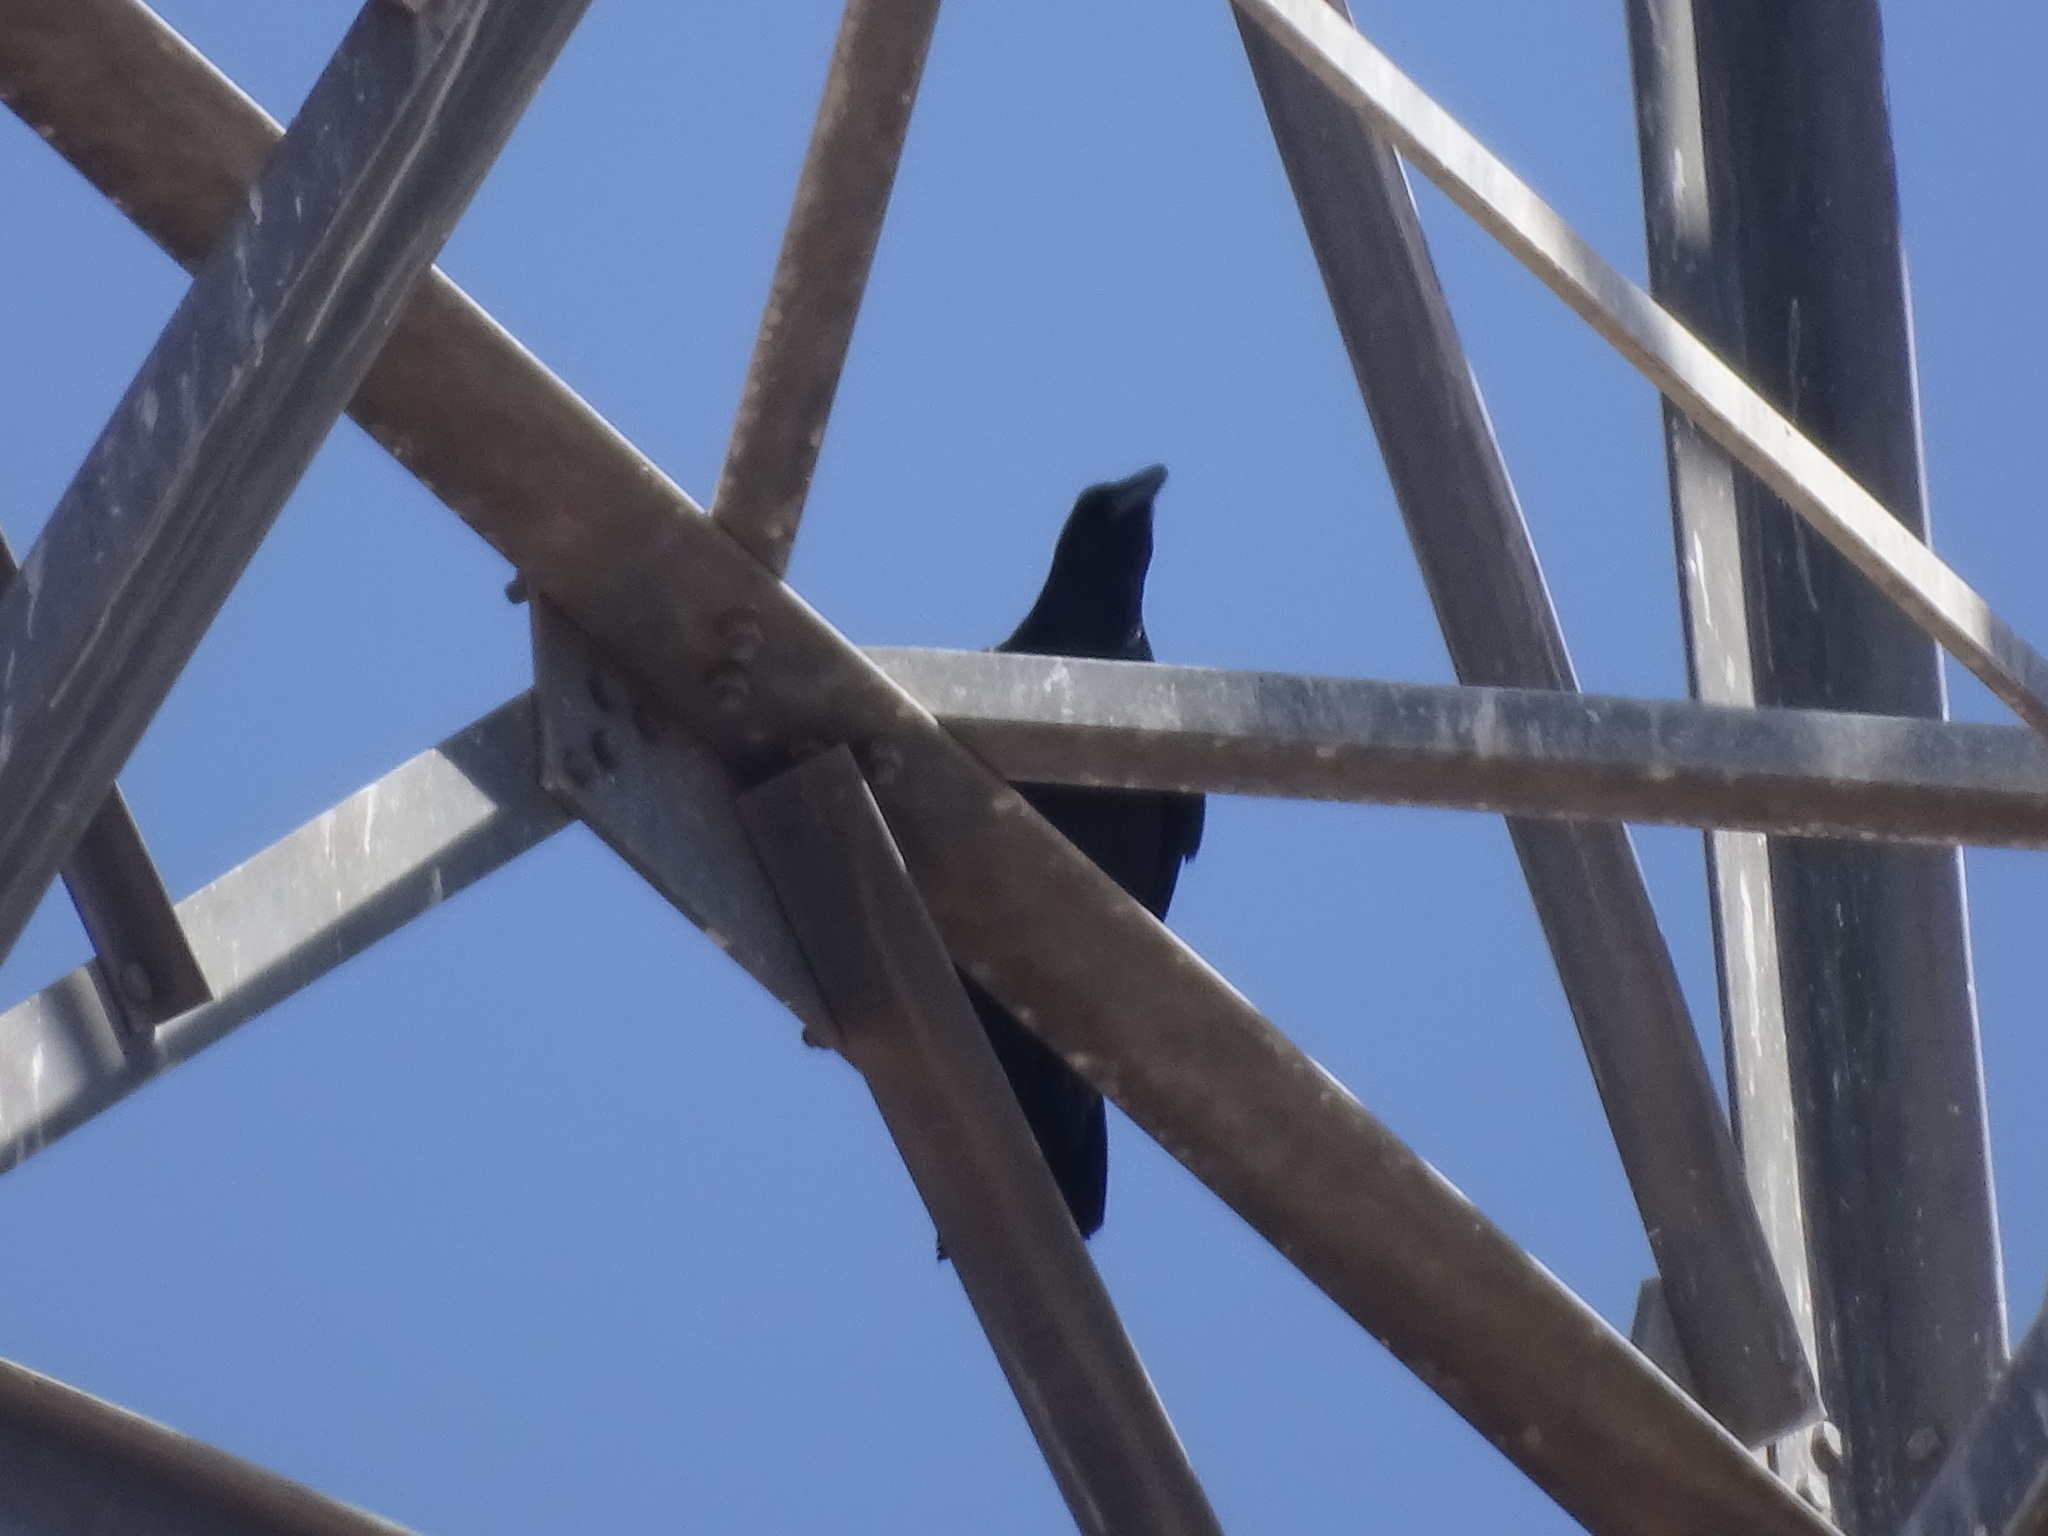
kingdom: Animalia
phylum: Chordata
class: Aves
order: Passeriformes
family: Corvidae
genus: Corvus
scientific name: Corvus sinaloae
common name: Sinaloa crow
